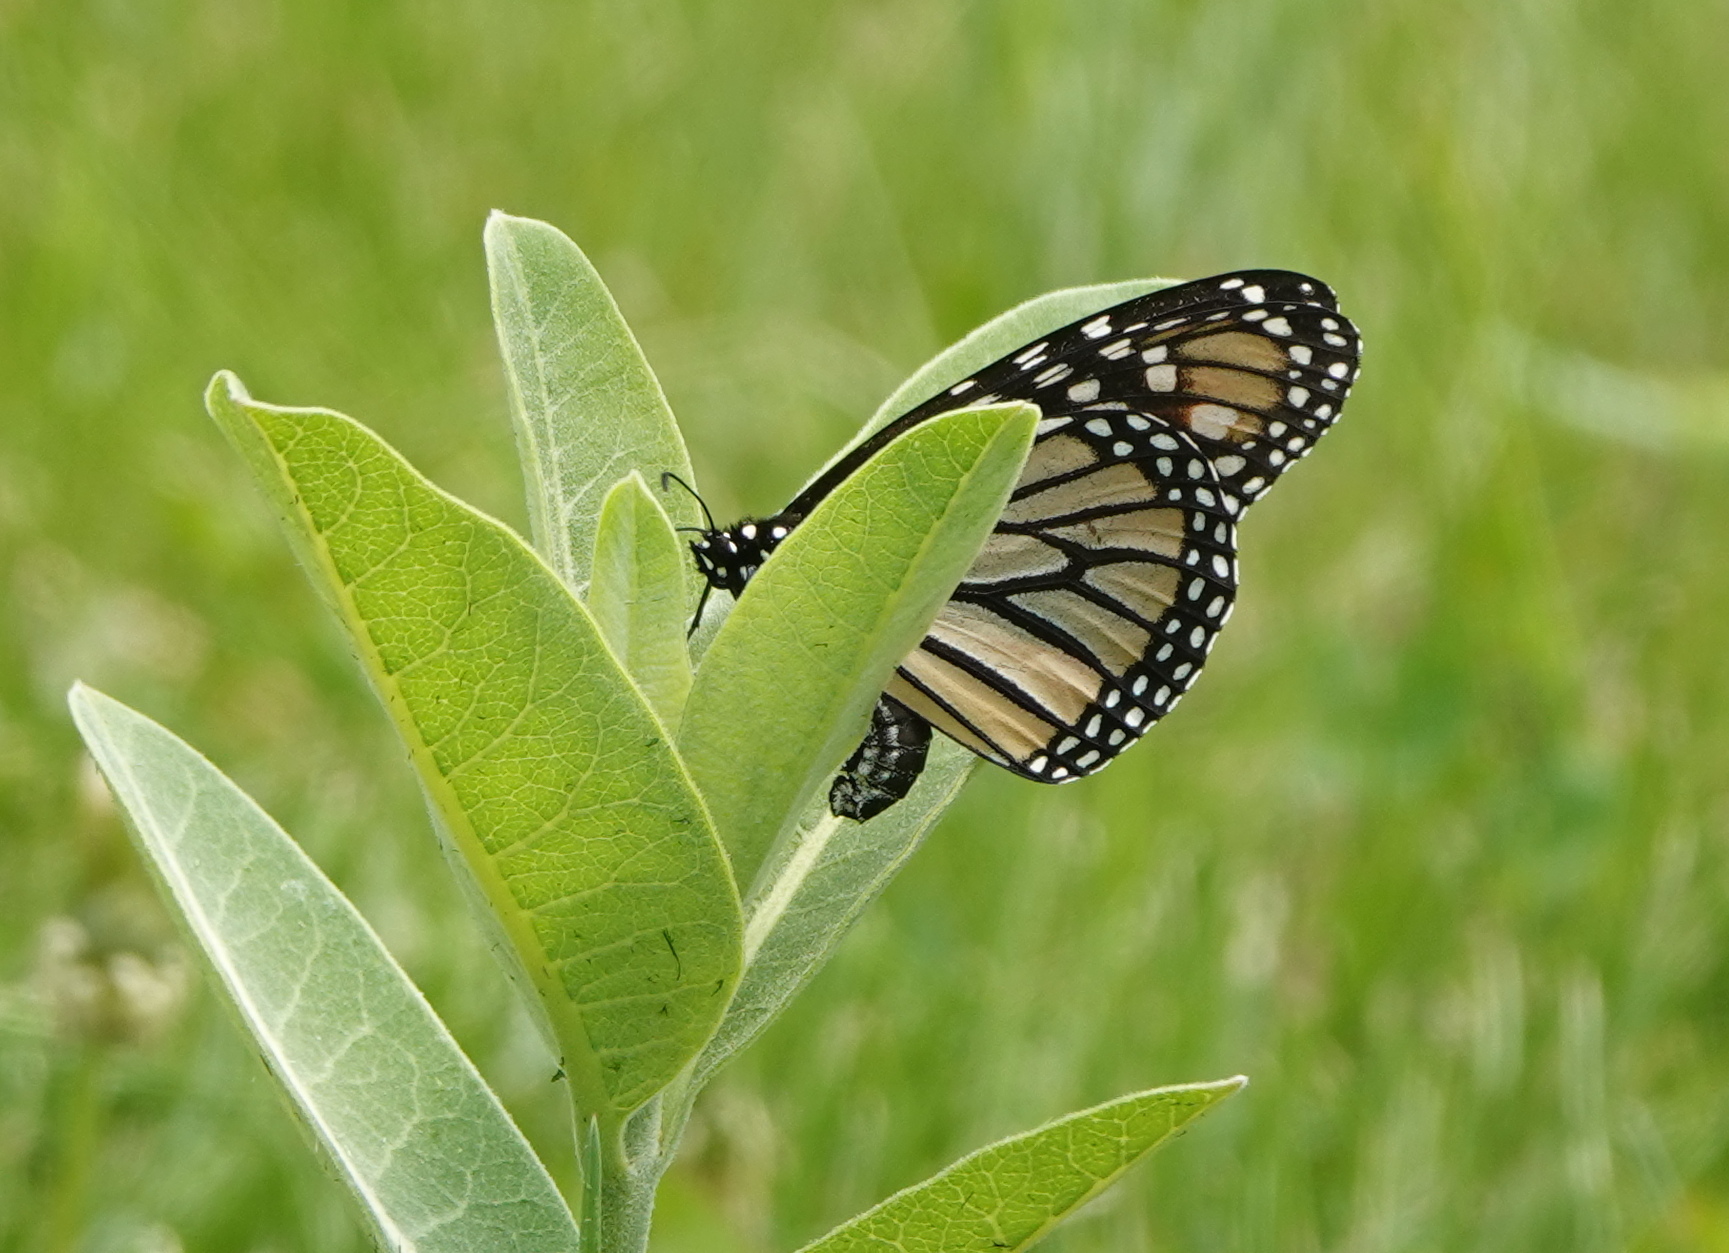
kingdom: Animalia
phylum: Arthropoda
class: Insecta
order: Lepidoptera
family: Nymphalidae
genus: Danaus
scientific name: Danaus plexippus
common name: Monarch
